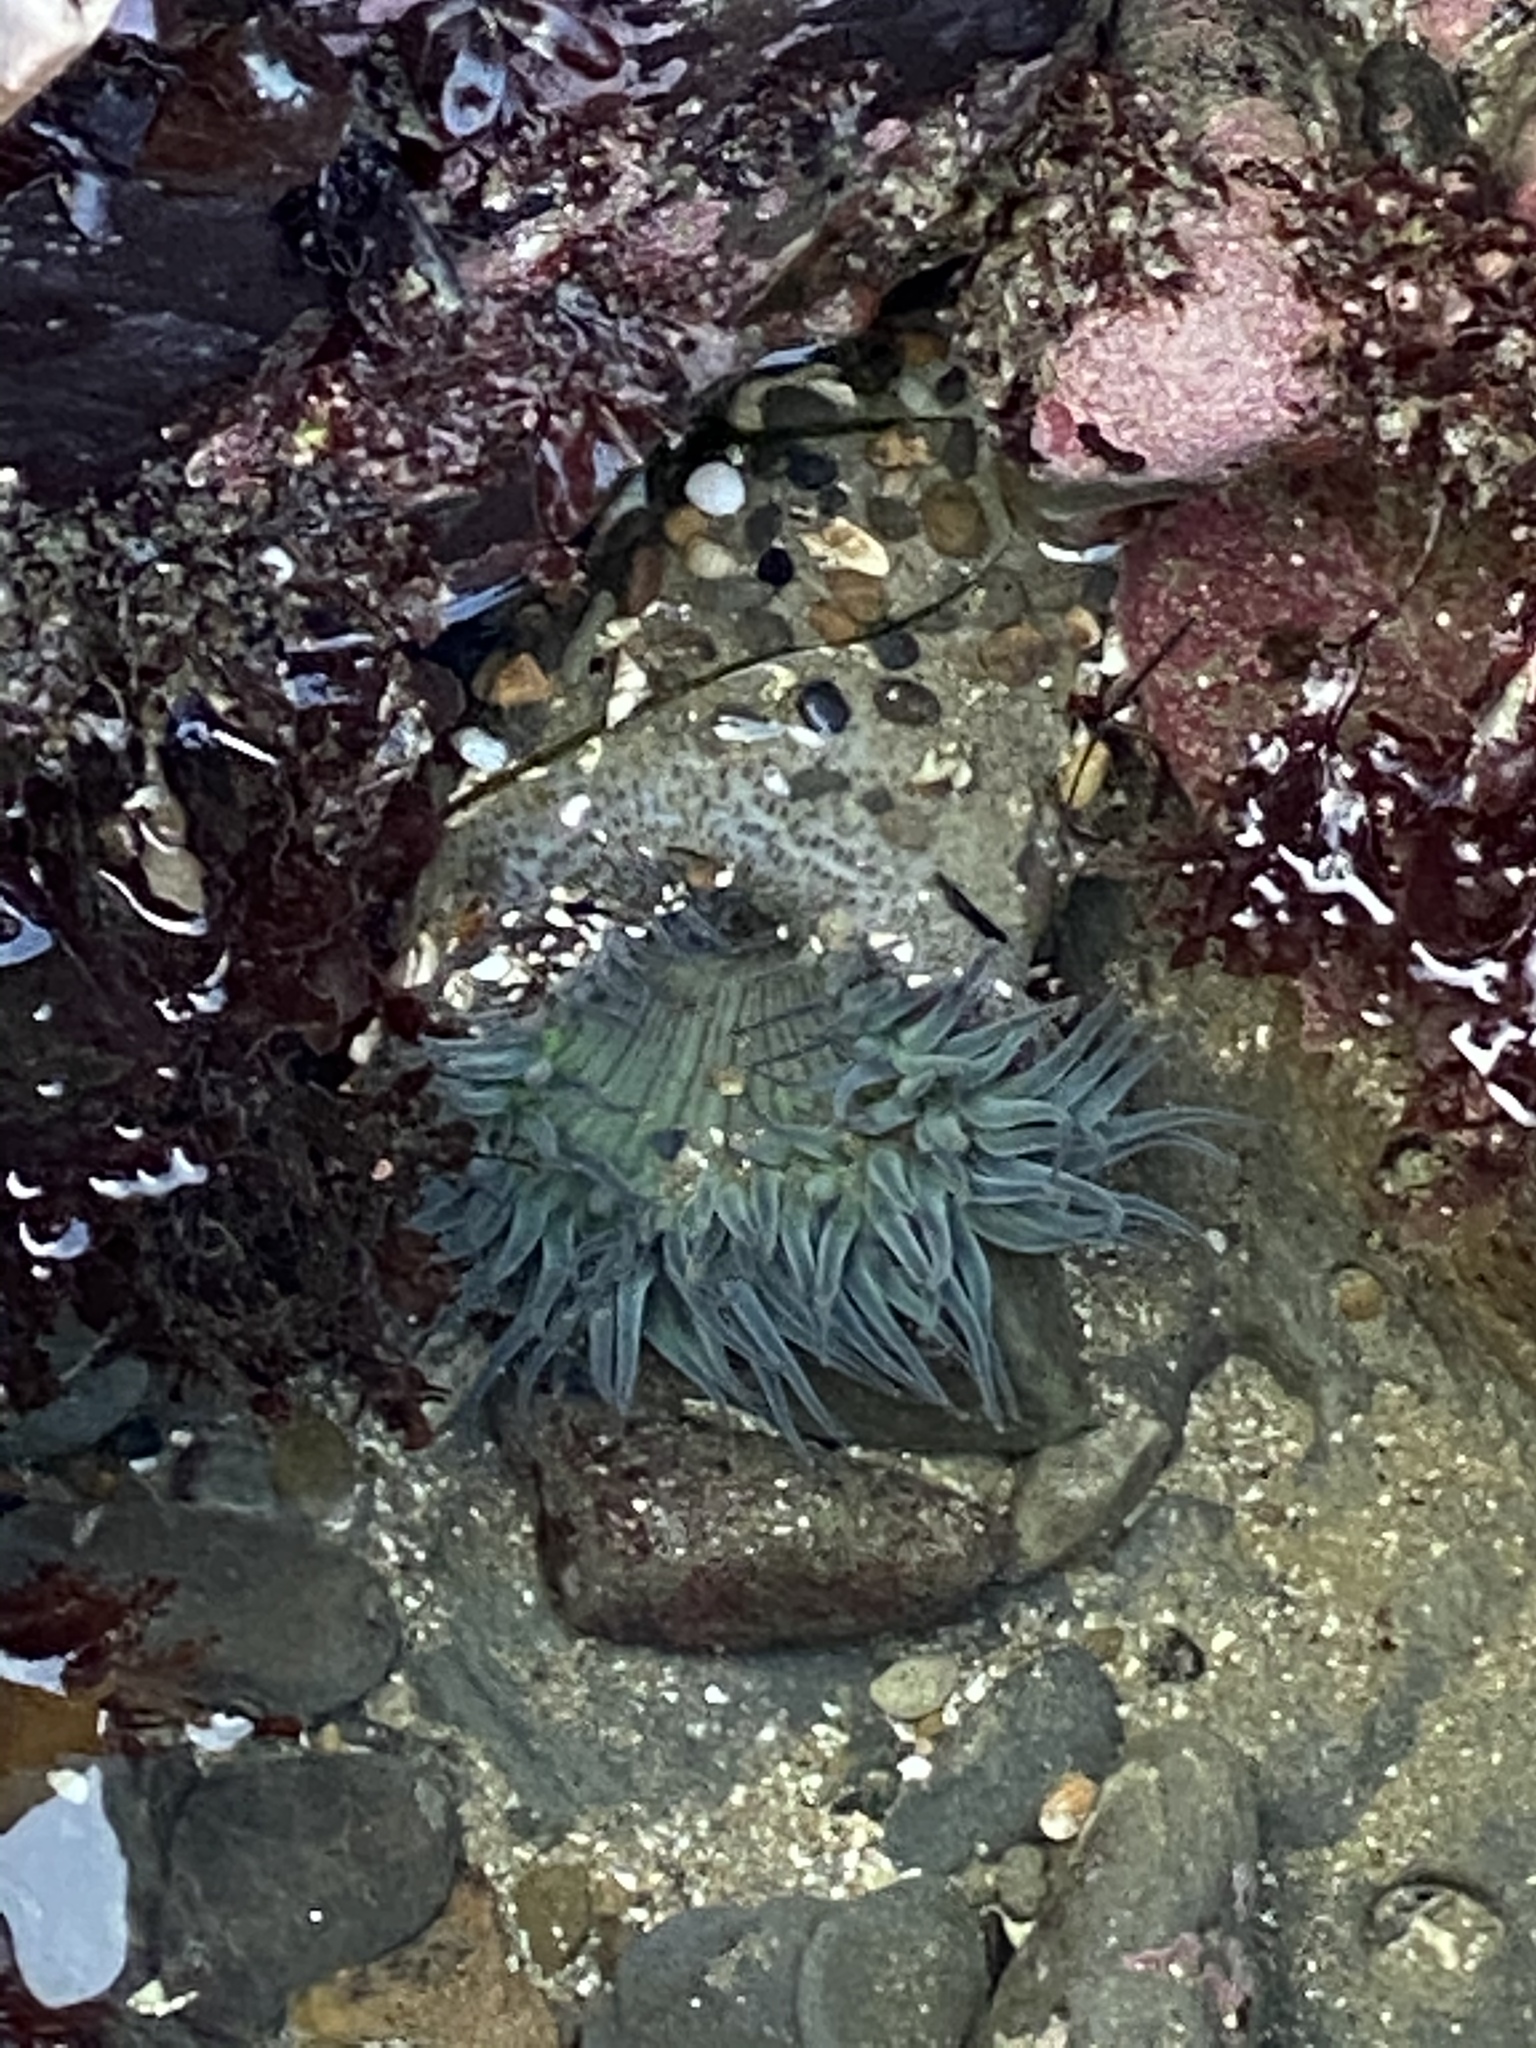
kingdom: Animalia
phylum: Cnidaria
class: Anthozoa
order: Actiniaria
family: Actiniidae
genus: Anthopleura
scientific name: Anthopleura sola
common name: Sun anemone
